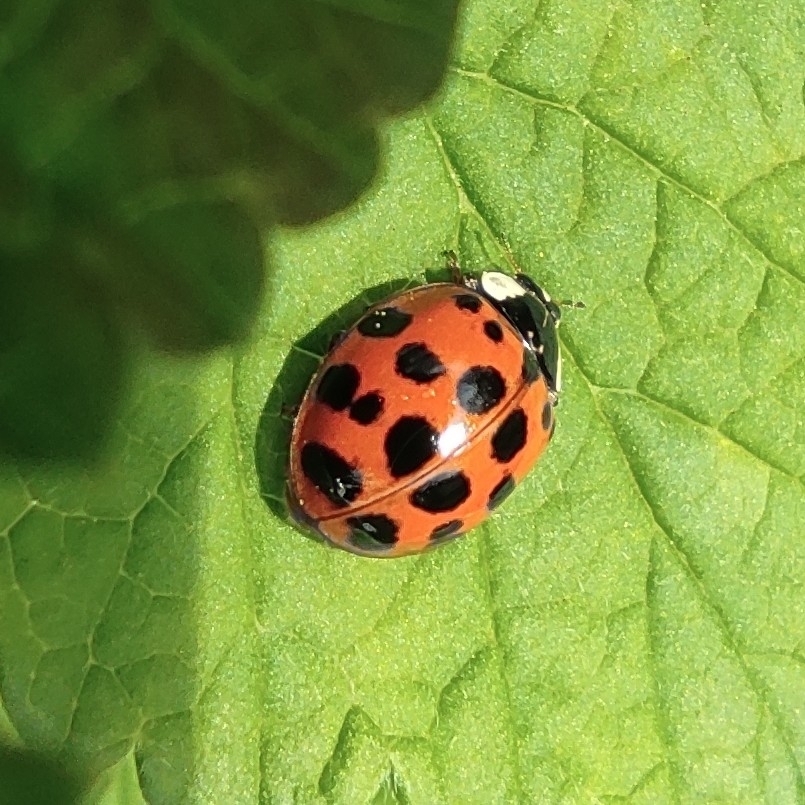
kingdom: Animalia
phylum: Arthropoda
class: Insecta
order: Coleoptera
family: Coccinellidae
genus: Harmonia
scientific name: Harmonia axyridis
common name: Harlequin ladybird
